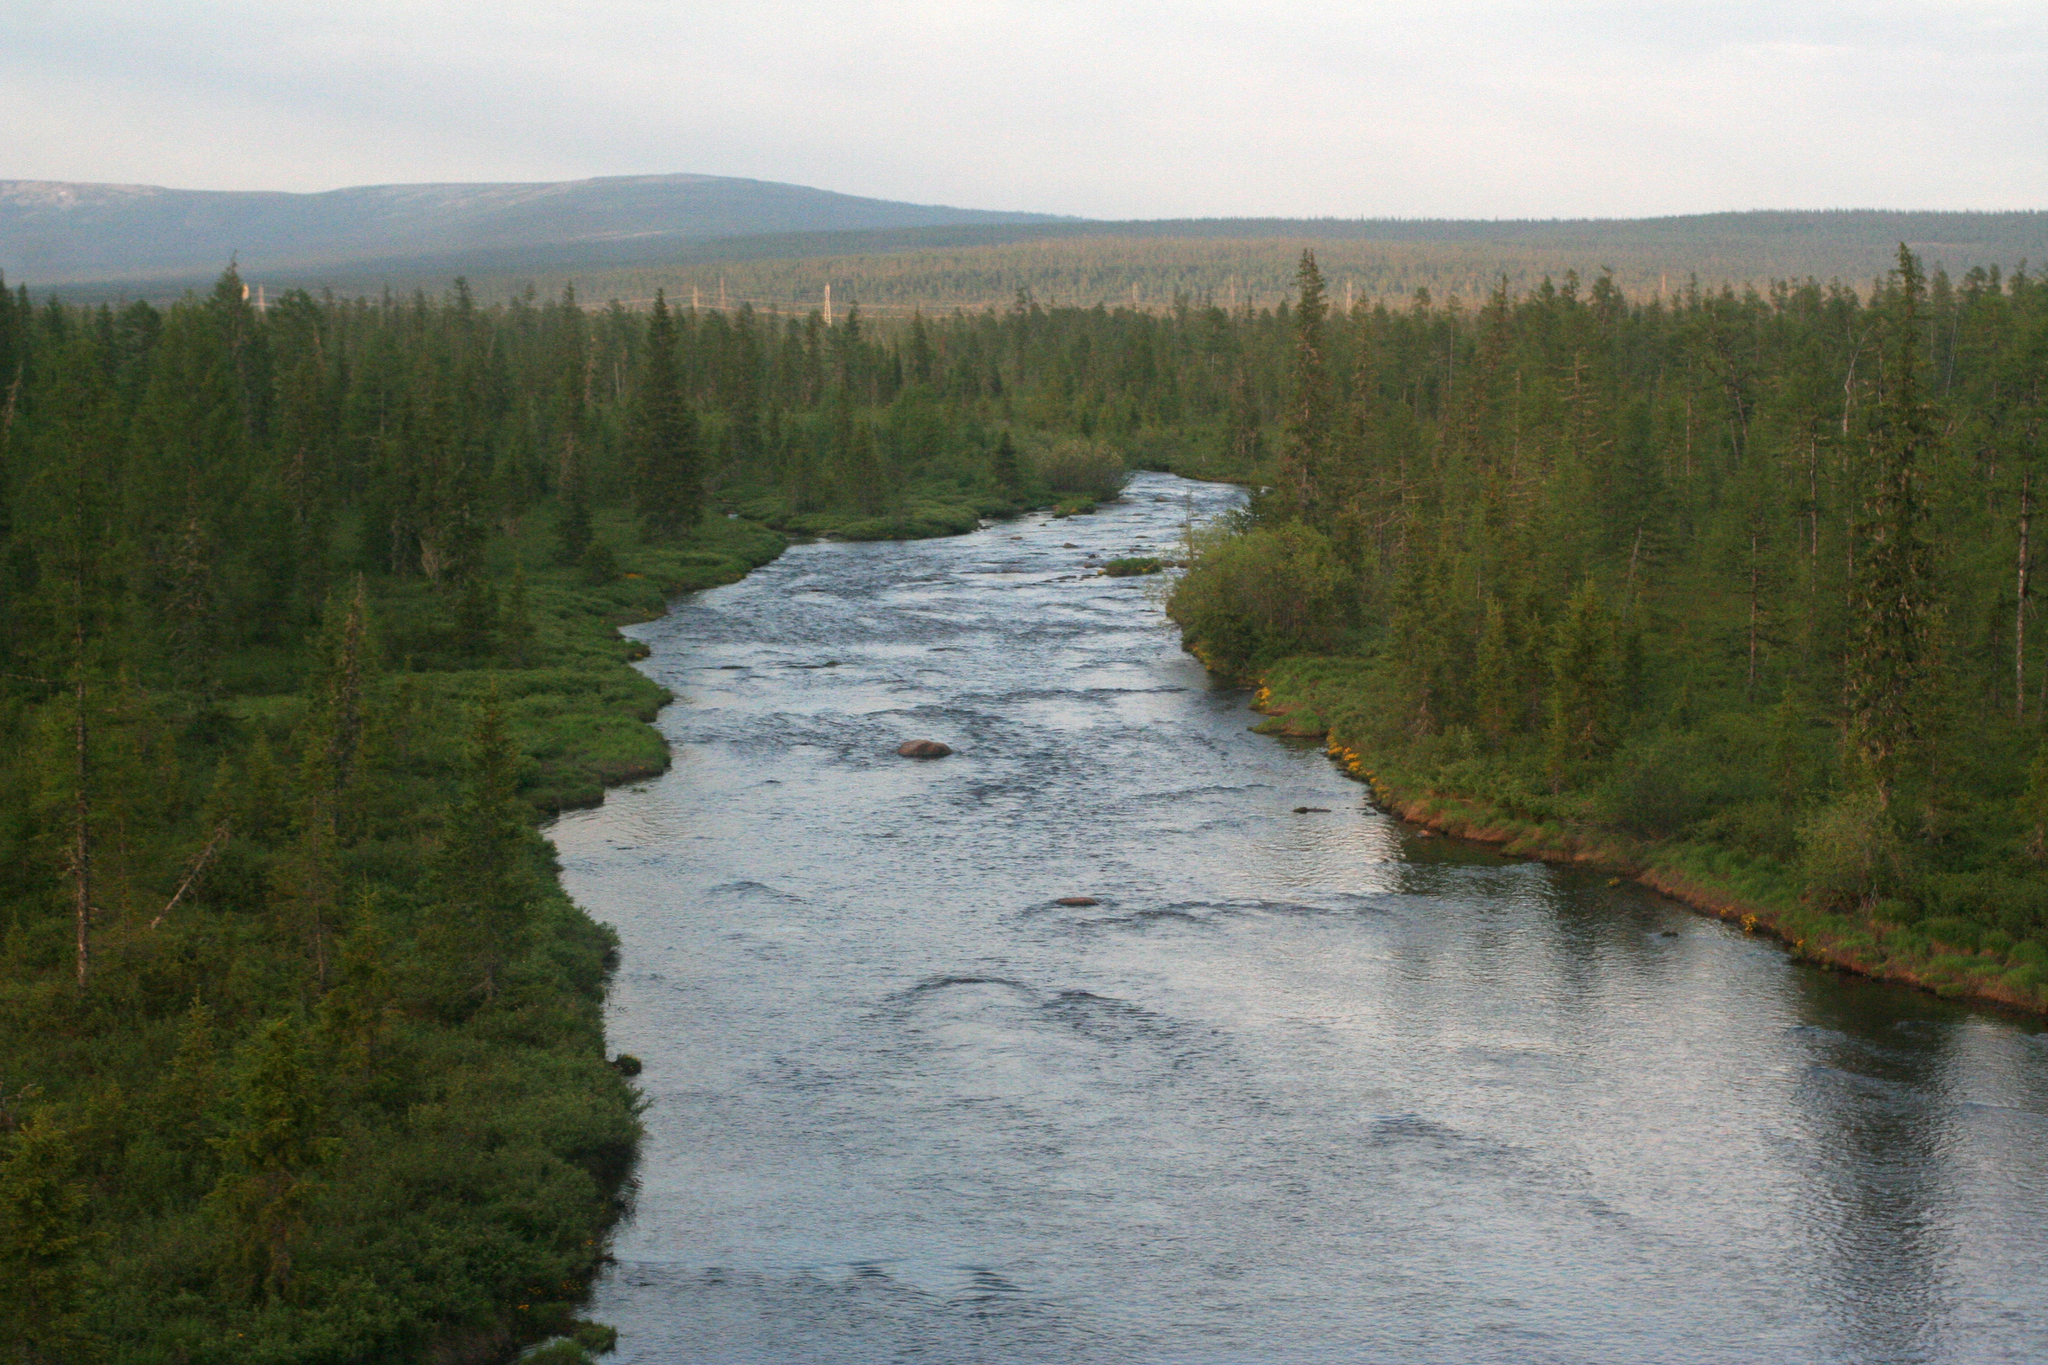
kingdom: Plantae
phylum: Tracheophyta
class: Pinopsida
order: Pinales
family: Pinaceae
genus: Picea
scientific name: Picea obovata
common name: Siberian spruce
